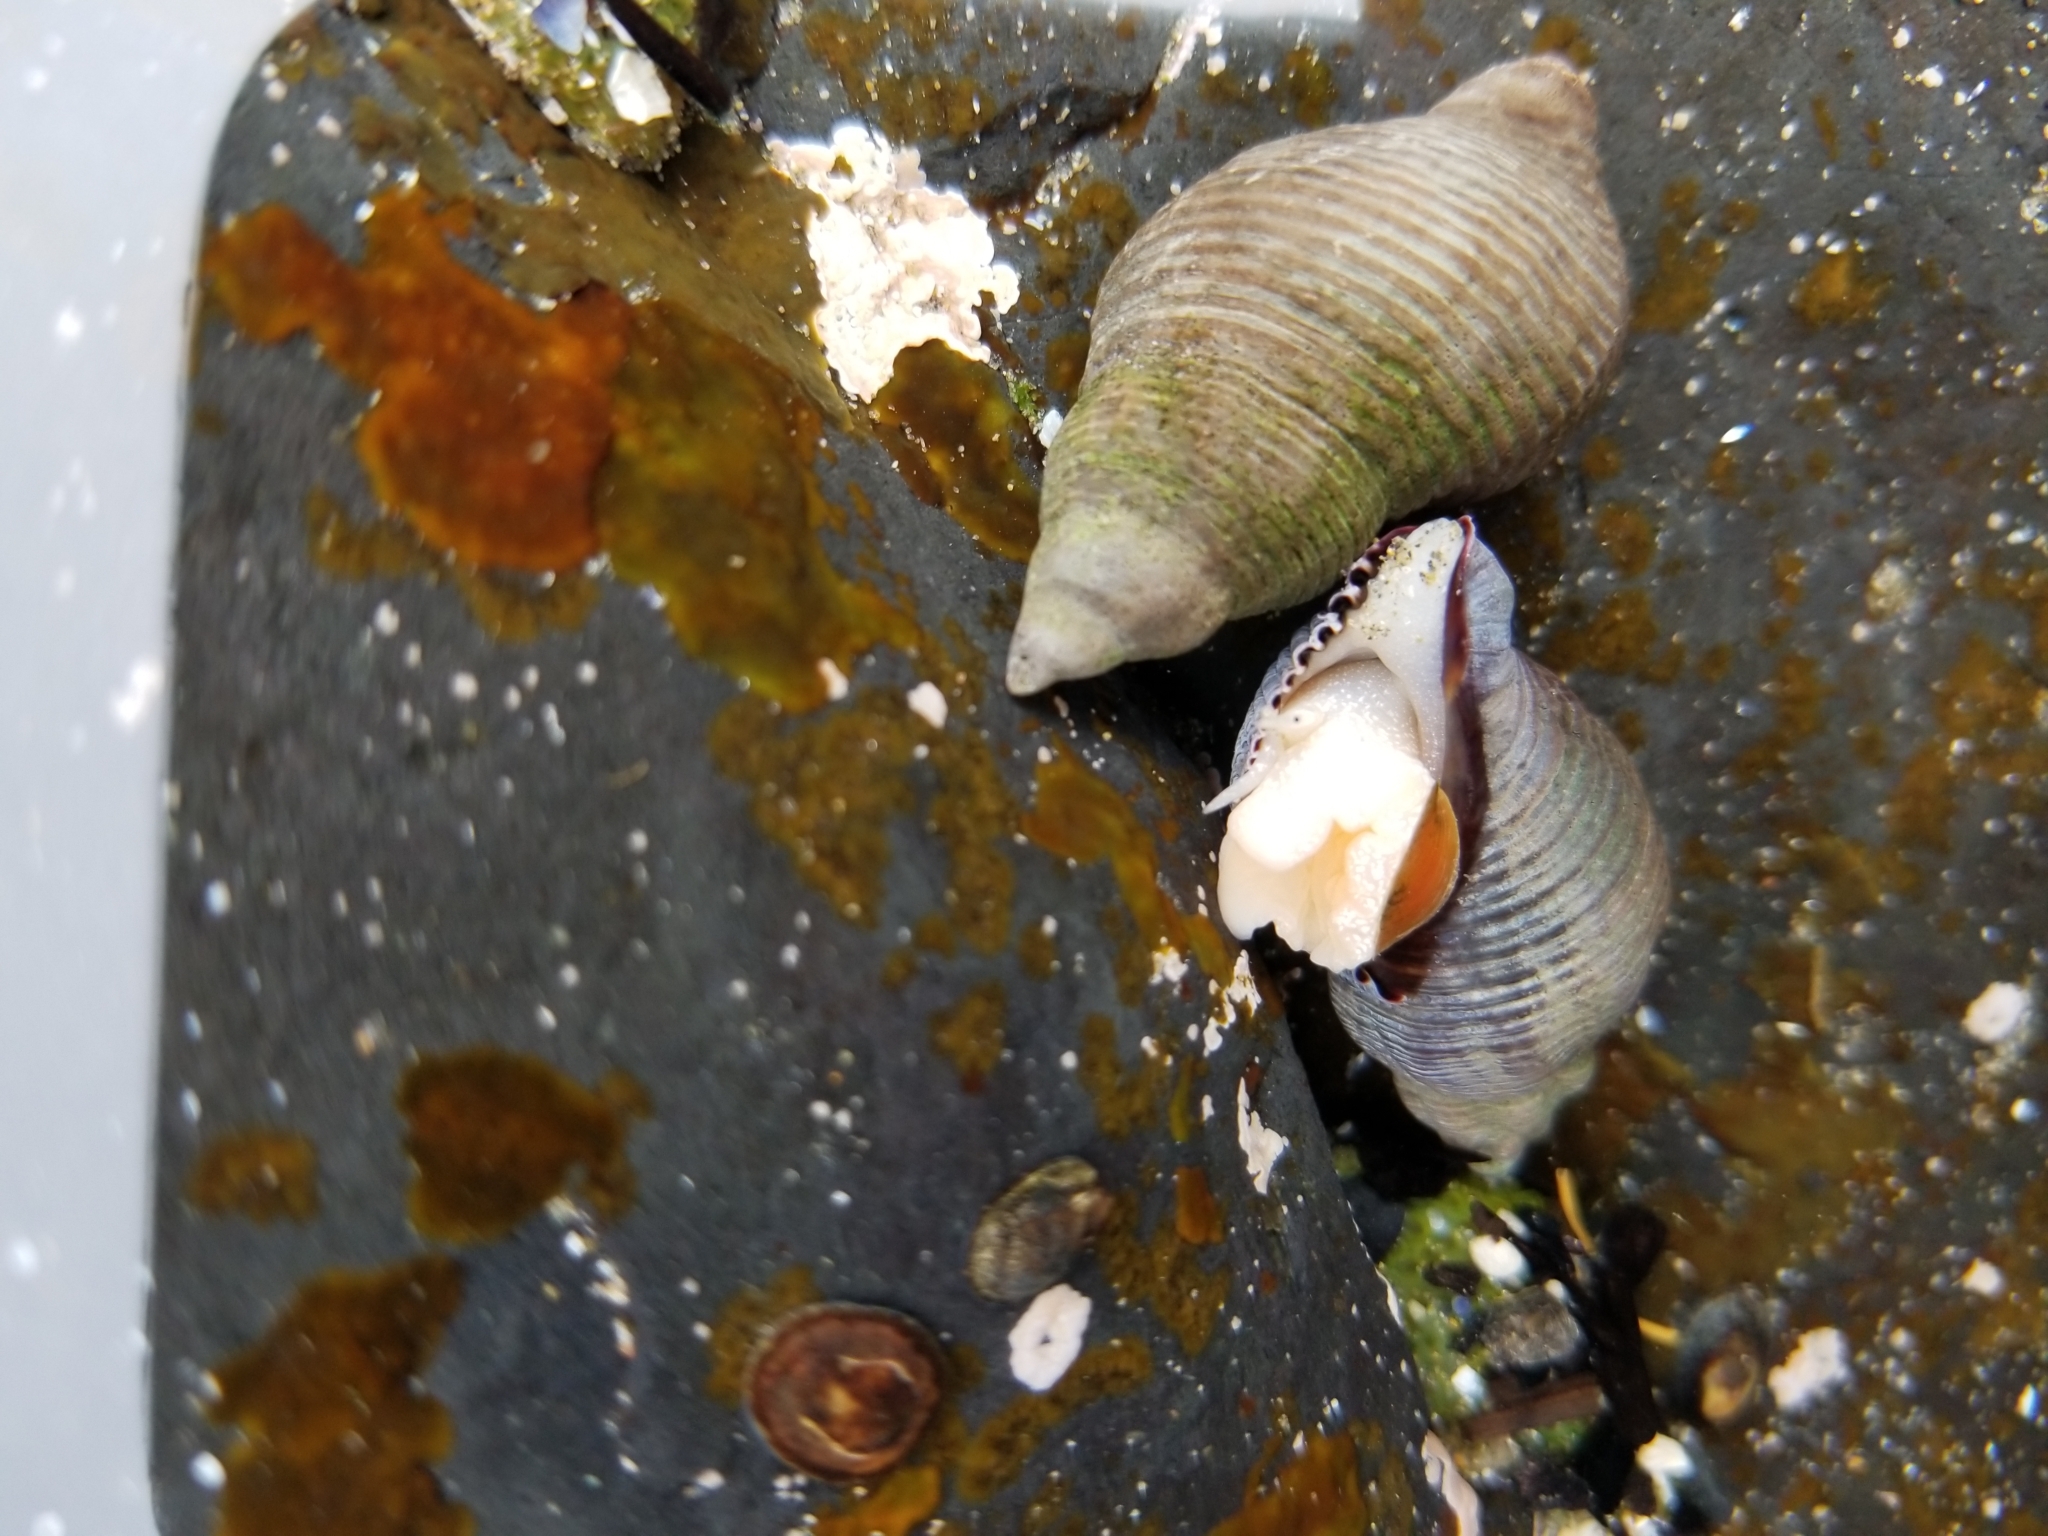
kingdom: Animalia
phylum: Mollusca
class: Gastropoda
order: Neogastropoda
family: Tudiclidae
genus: Lirabuccinum
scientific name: Lirabuccinum dirum
